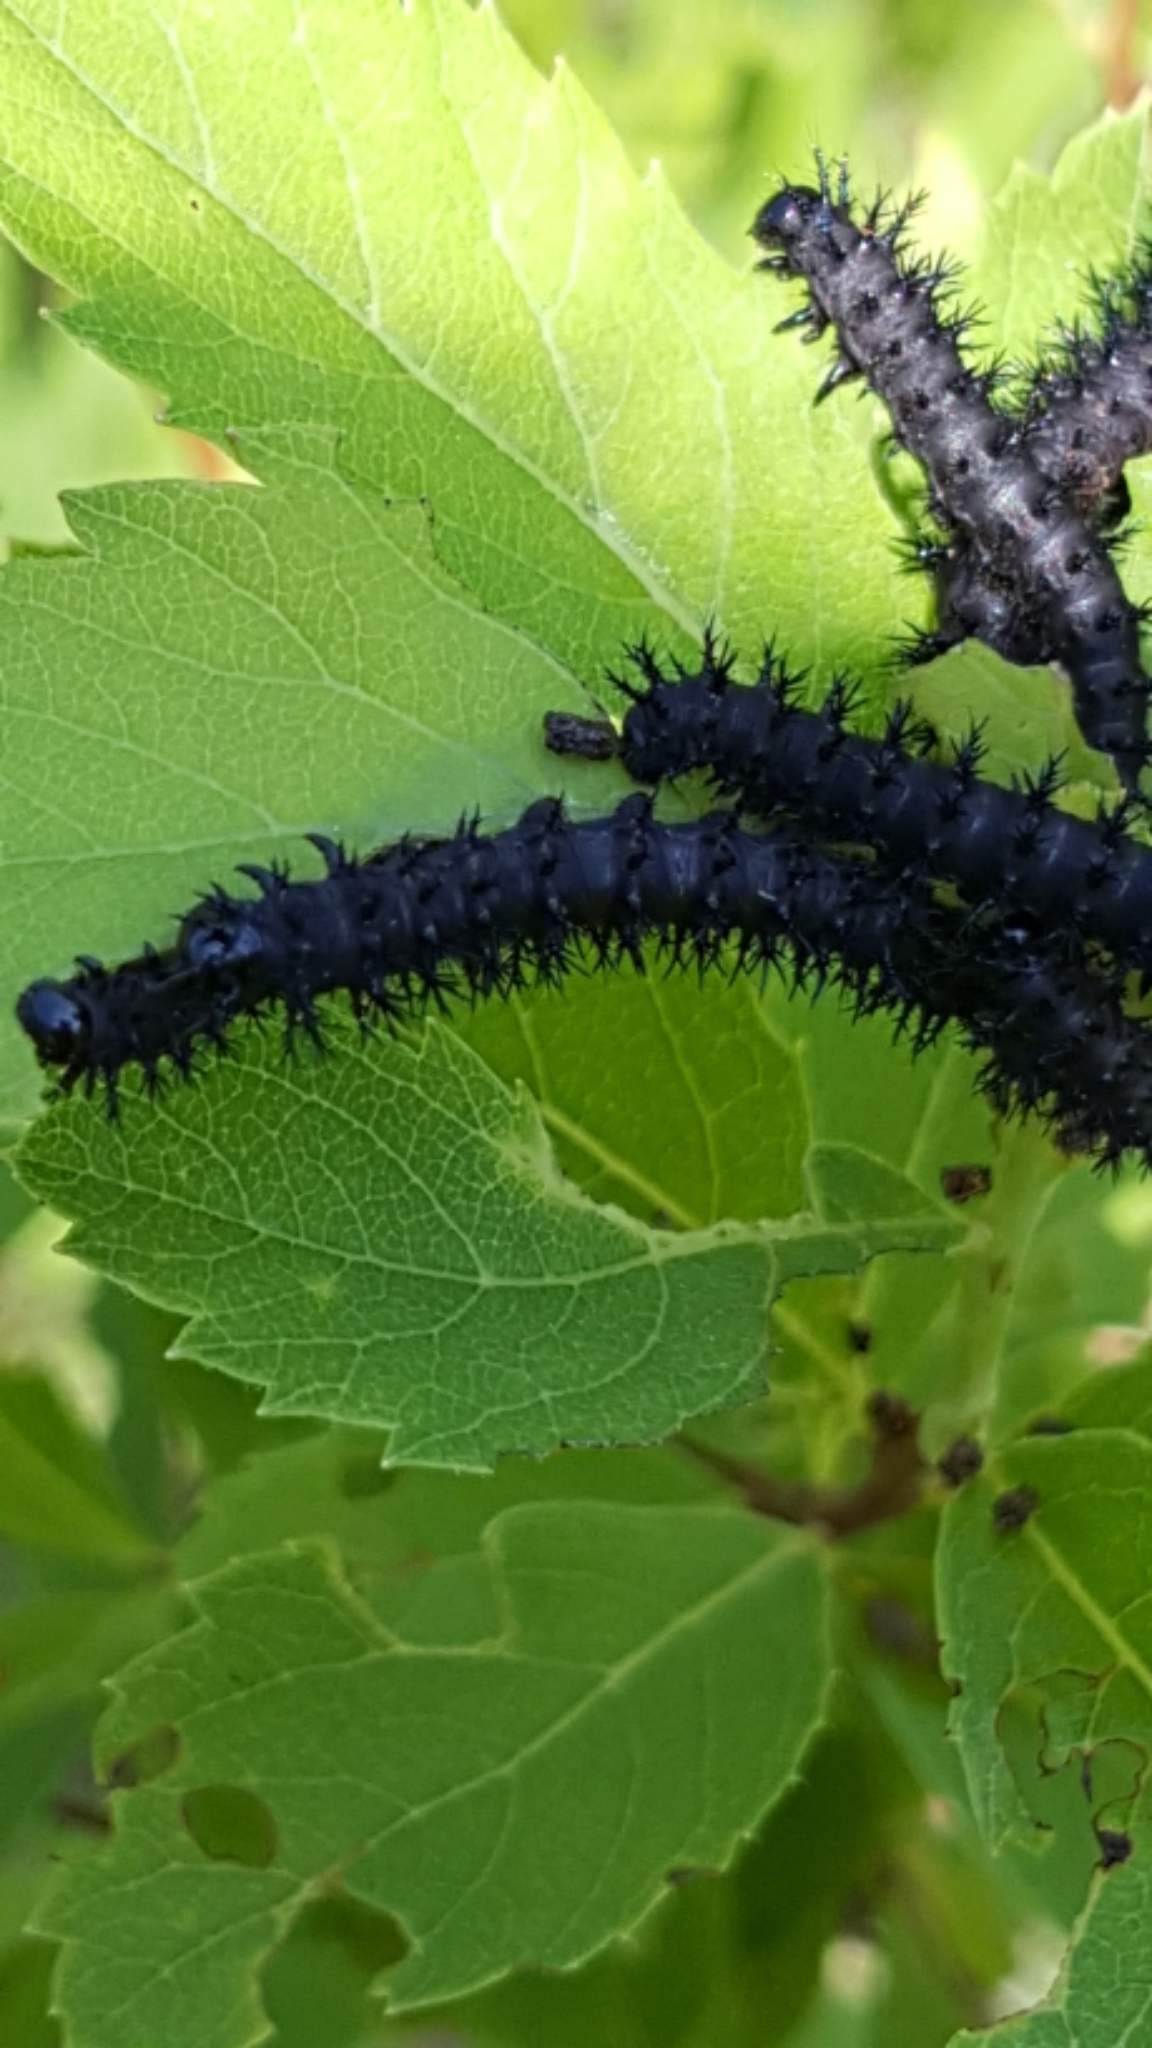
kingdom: Animalia
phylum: Arthropoda
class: Insecta
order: Lepidoptera
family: Saturniidae
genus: Hemileuca
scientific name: Hemileuca lucina
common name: New england buckmoth
